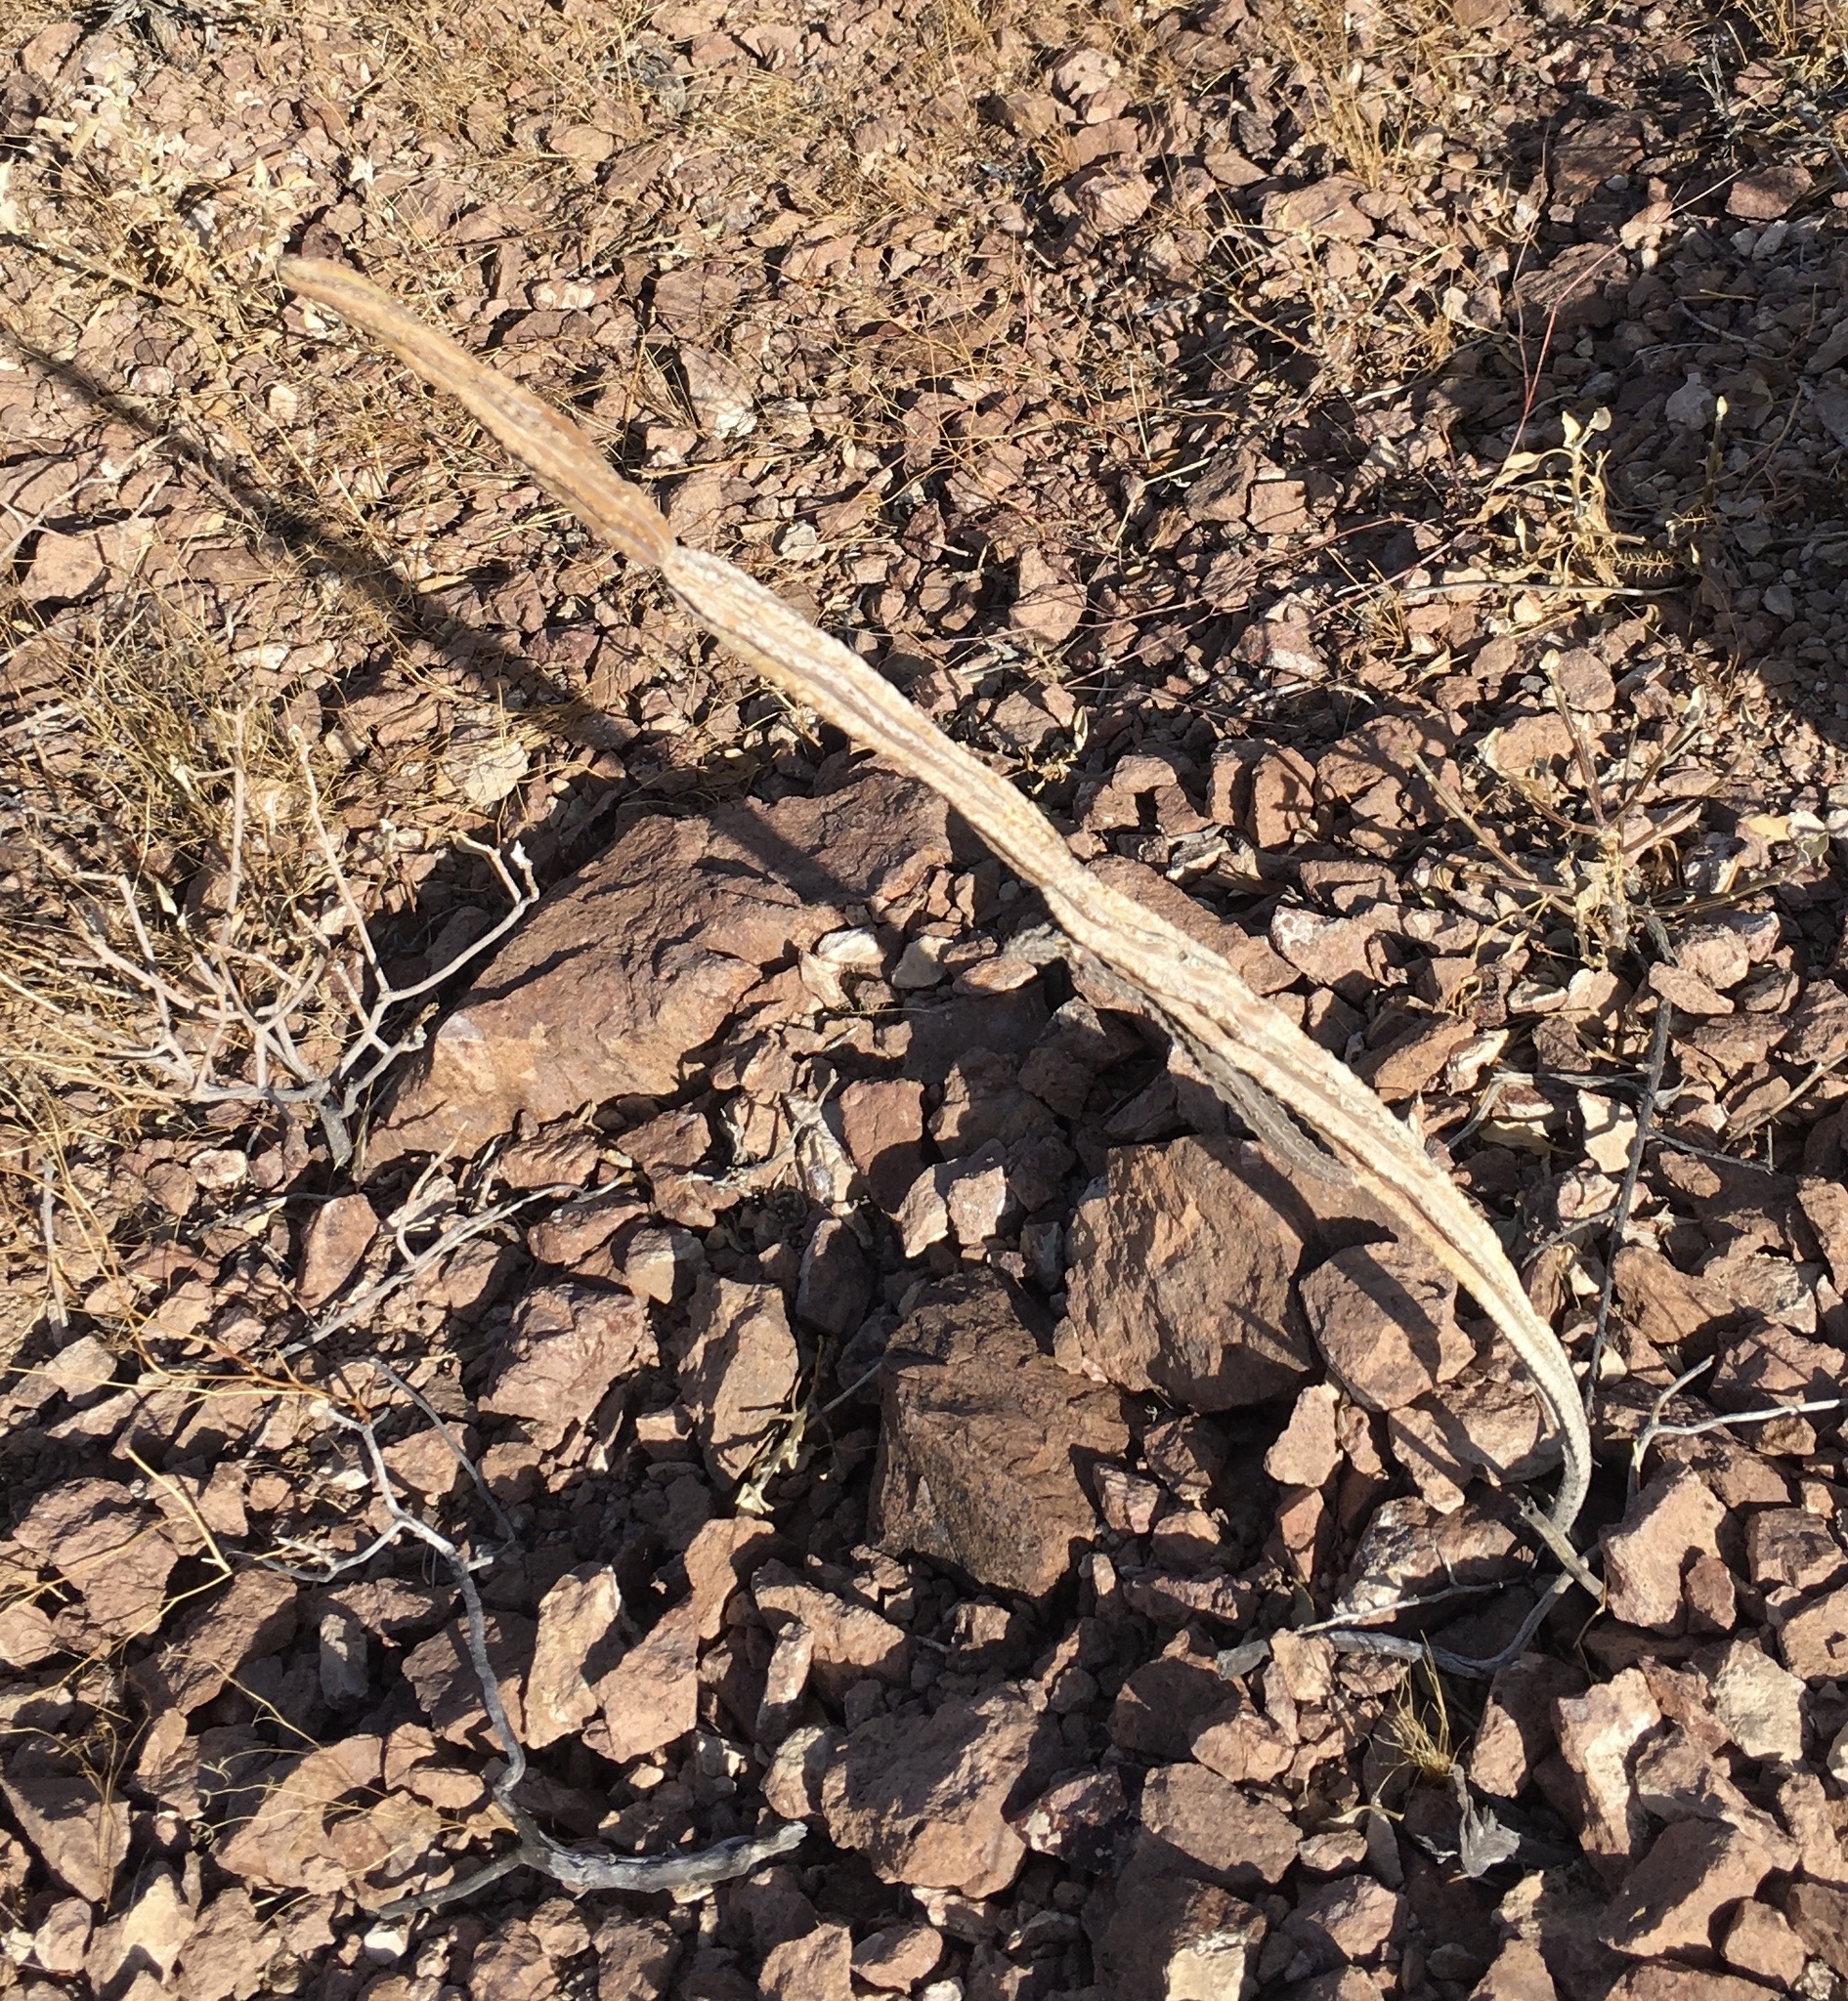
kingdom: Plantae
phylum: Tracheophyta
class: Magnoliopsida
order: Caryophyllales
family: Cactaceae
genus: Peniocereus
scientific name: Peniocereus greggii
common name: Desert night-blooming cereus
